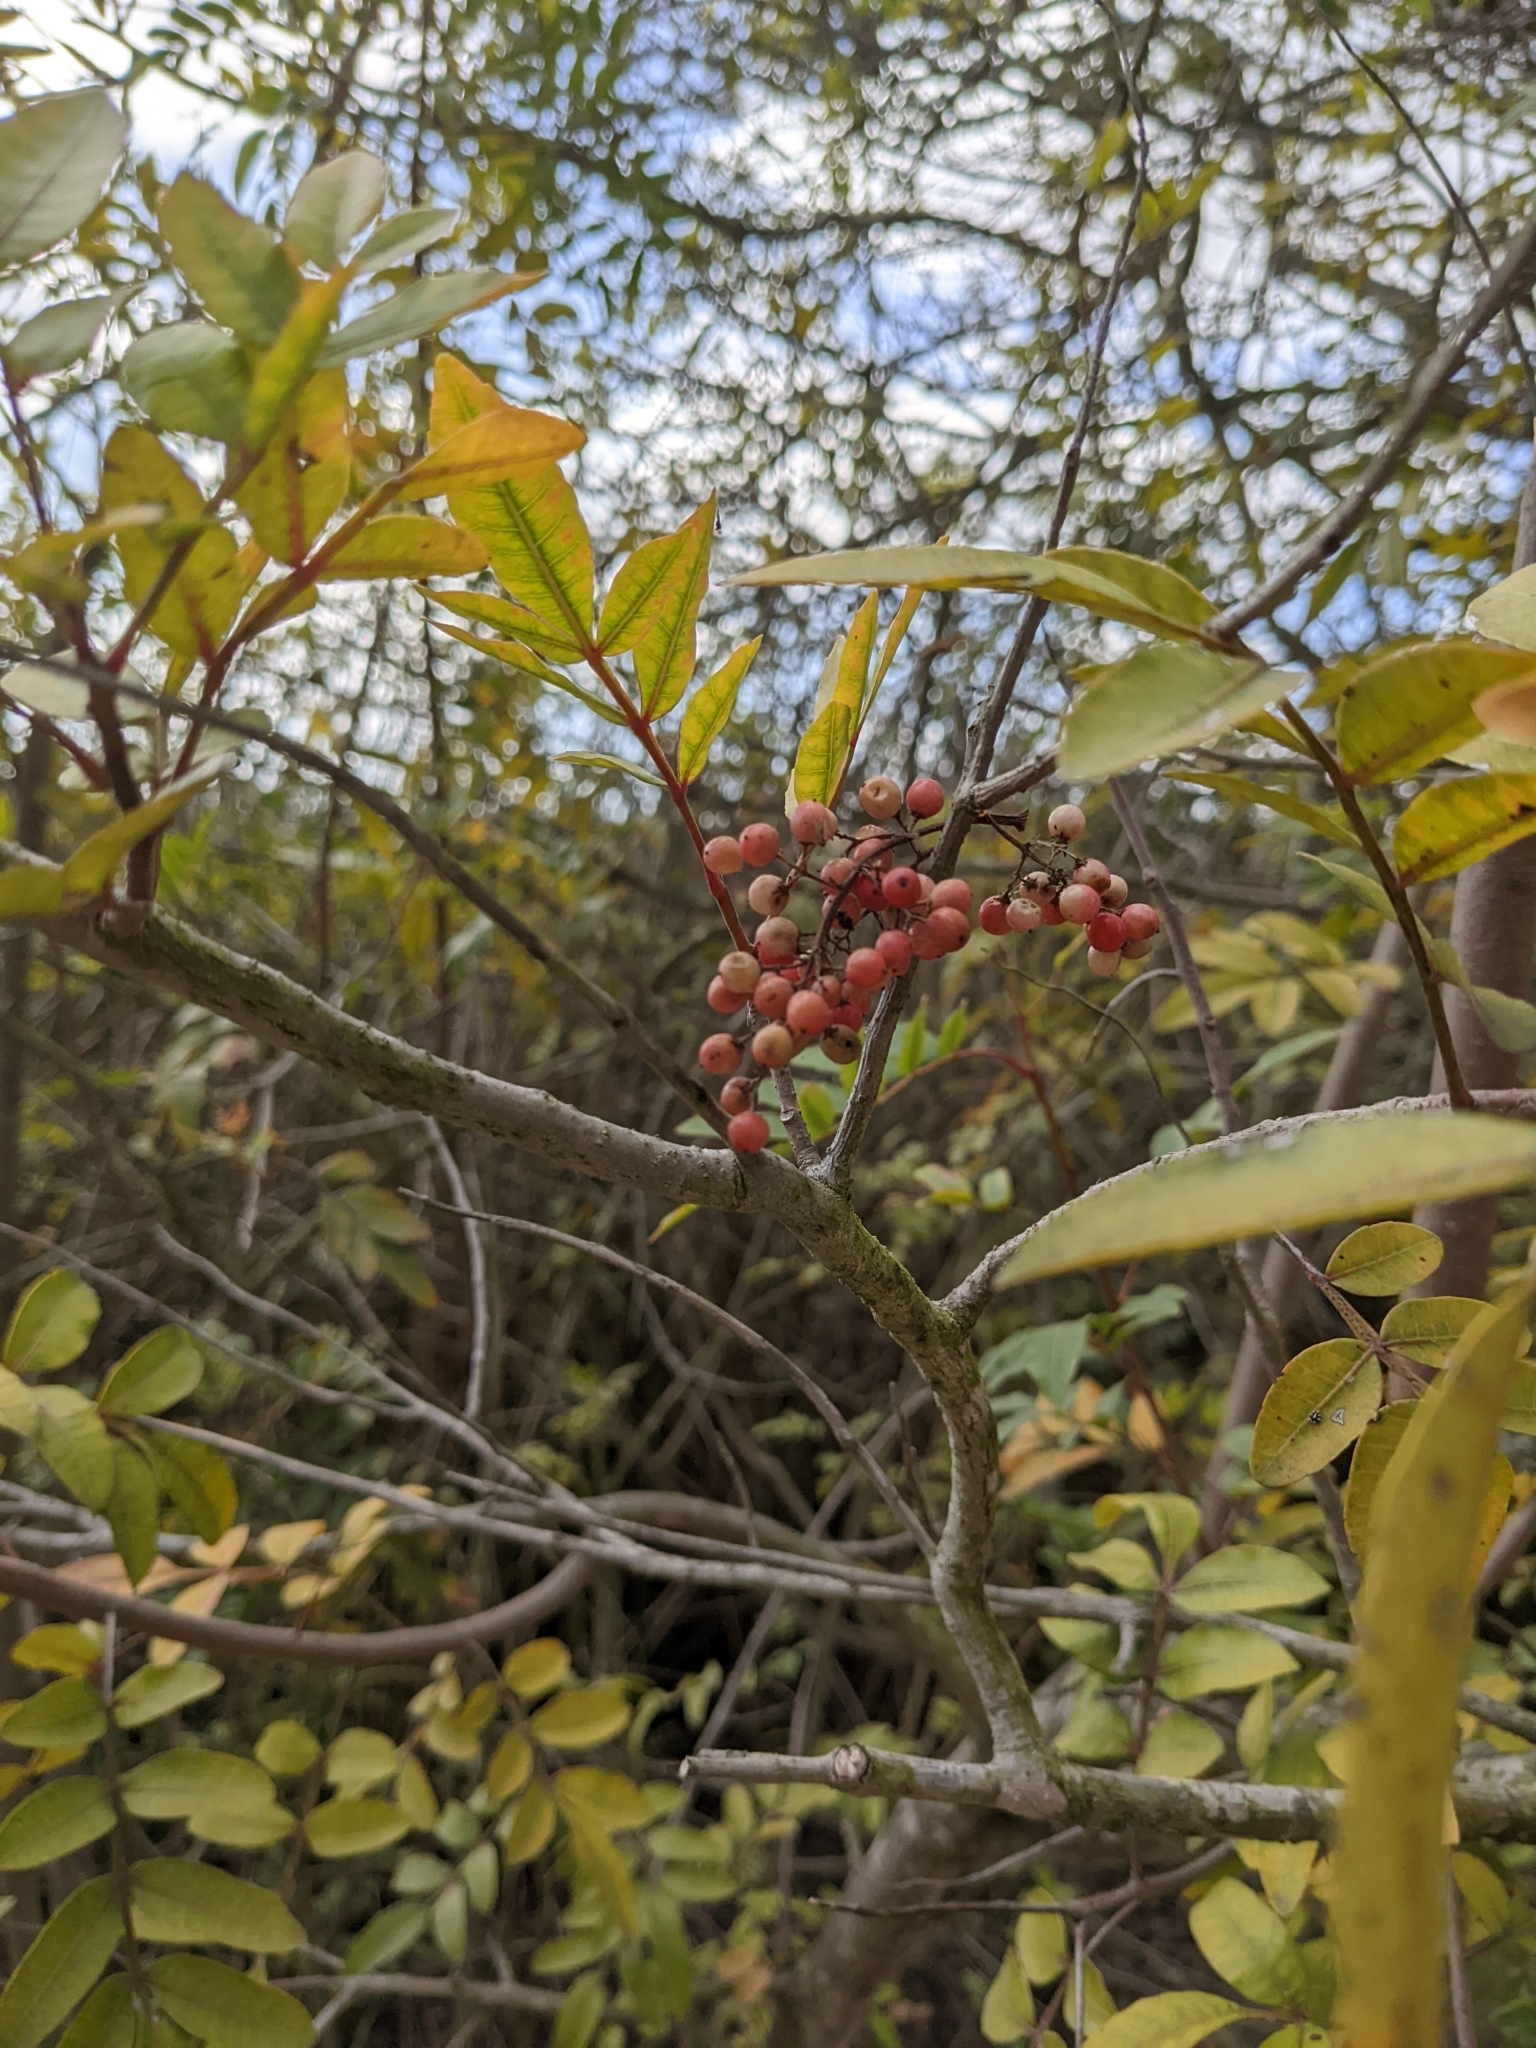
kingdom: Plantae
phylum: Tracheophyta
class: Magnoliopsida
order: Sapindales
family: Anacardiaceae
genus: Schinus
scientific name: Schinus terebinthifolia
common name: Brazilian peppertree
